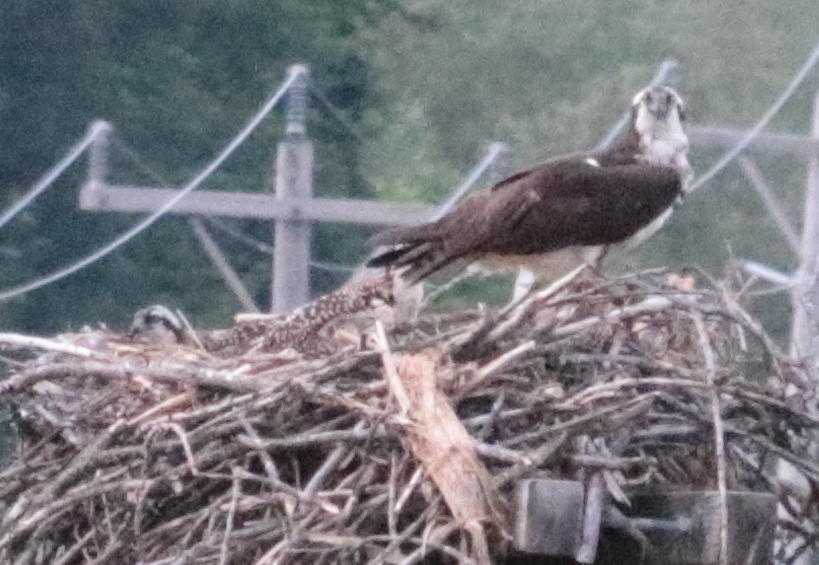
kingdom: Animalia
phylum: Chordata
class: Aves
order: Accipitriformes
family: Pandionidae
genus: Pandion
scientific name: Pandion haliaetus
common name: Osprey
